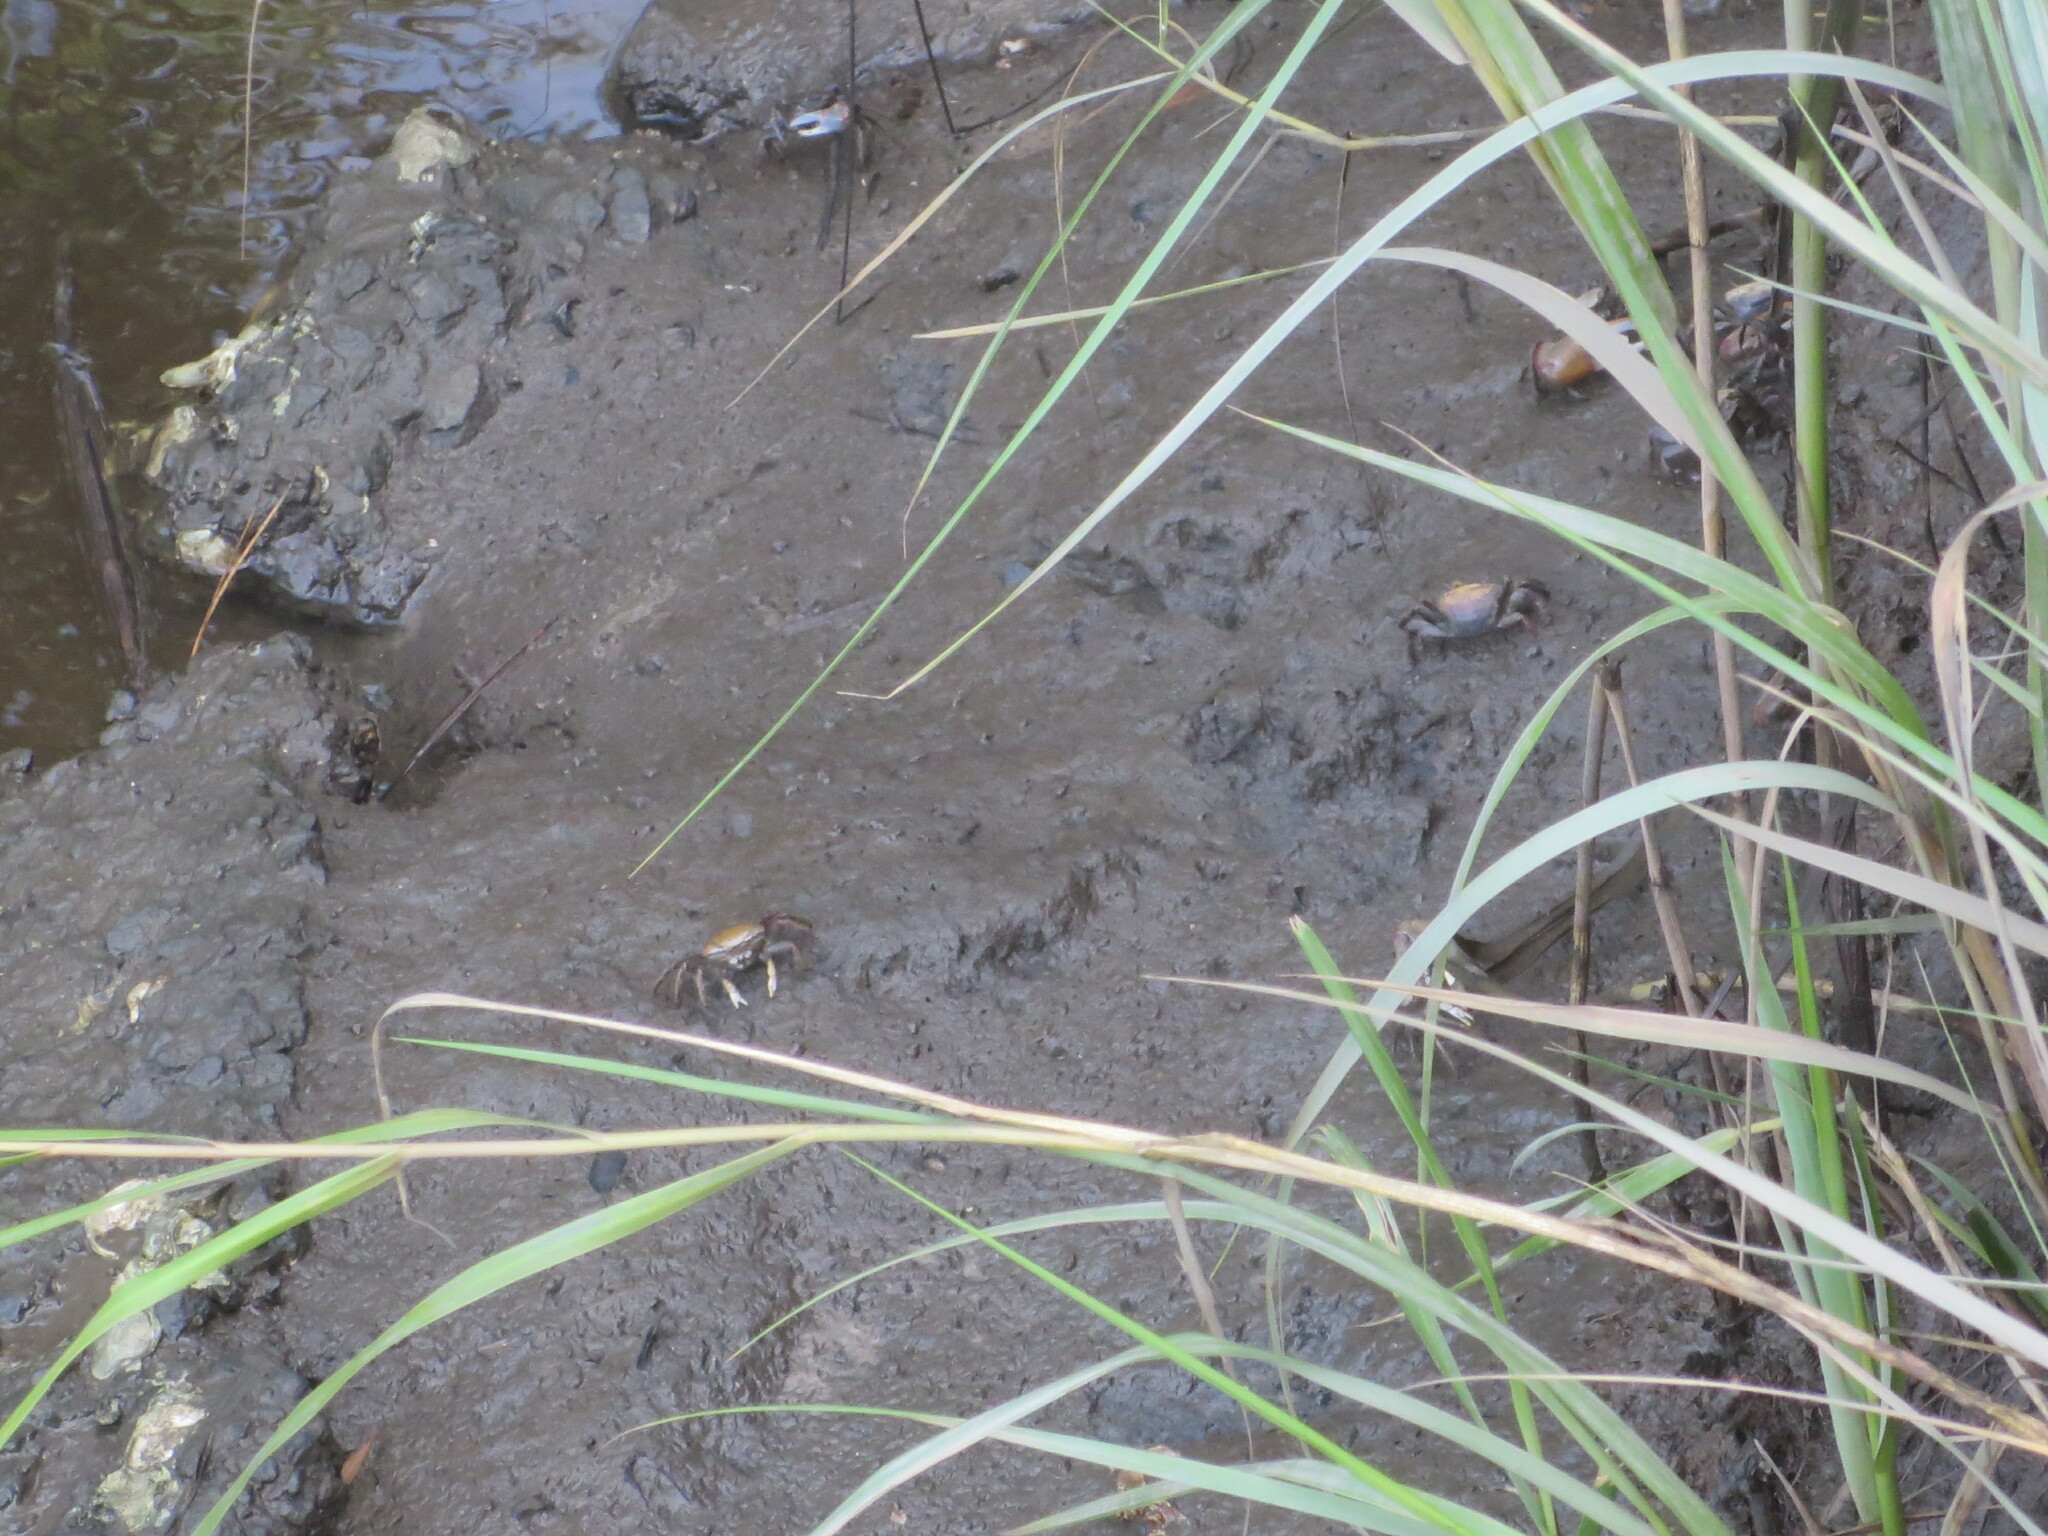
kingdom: Animalia
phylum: Arthropoda
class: Malacostraca
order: Decapoda
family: Ocypodidae
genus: Minuca
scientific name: Minuca minax
